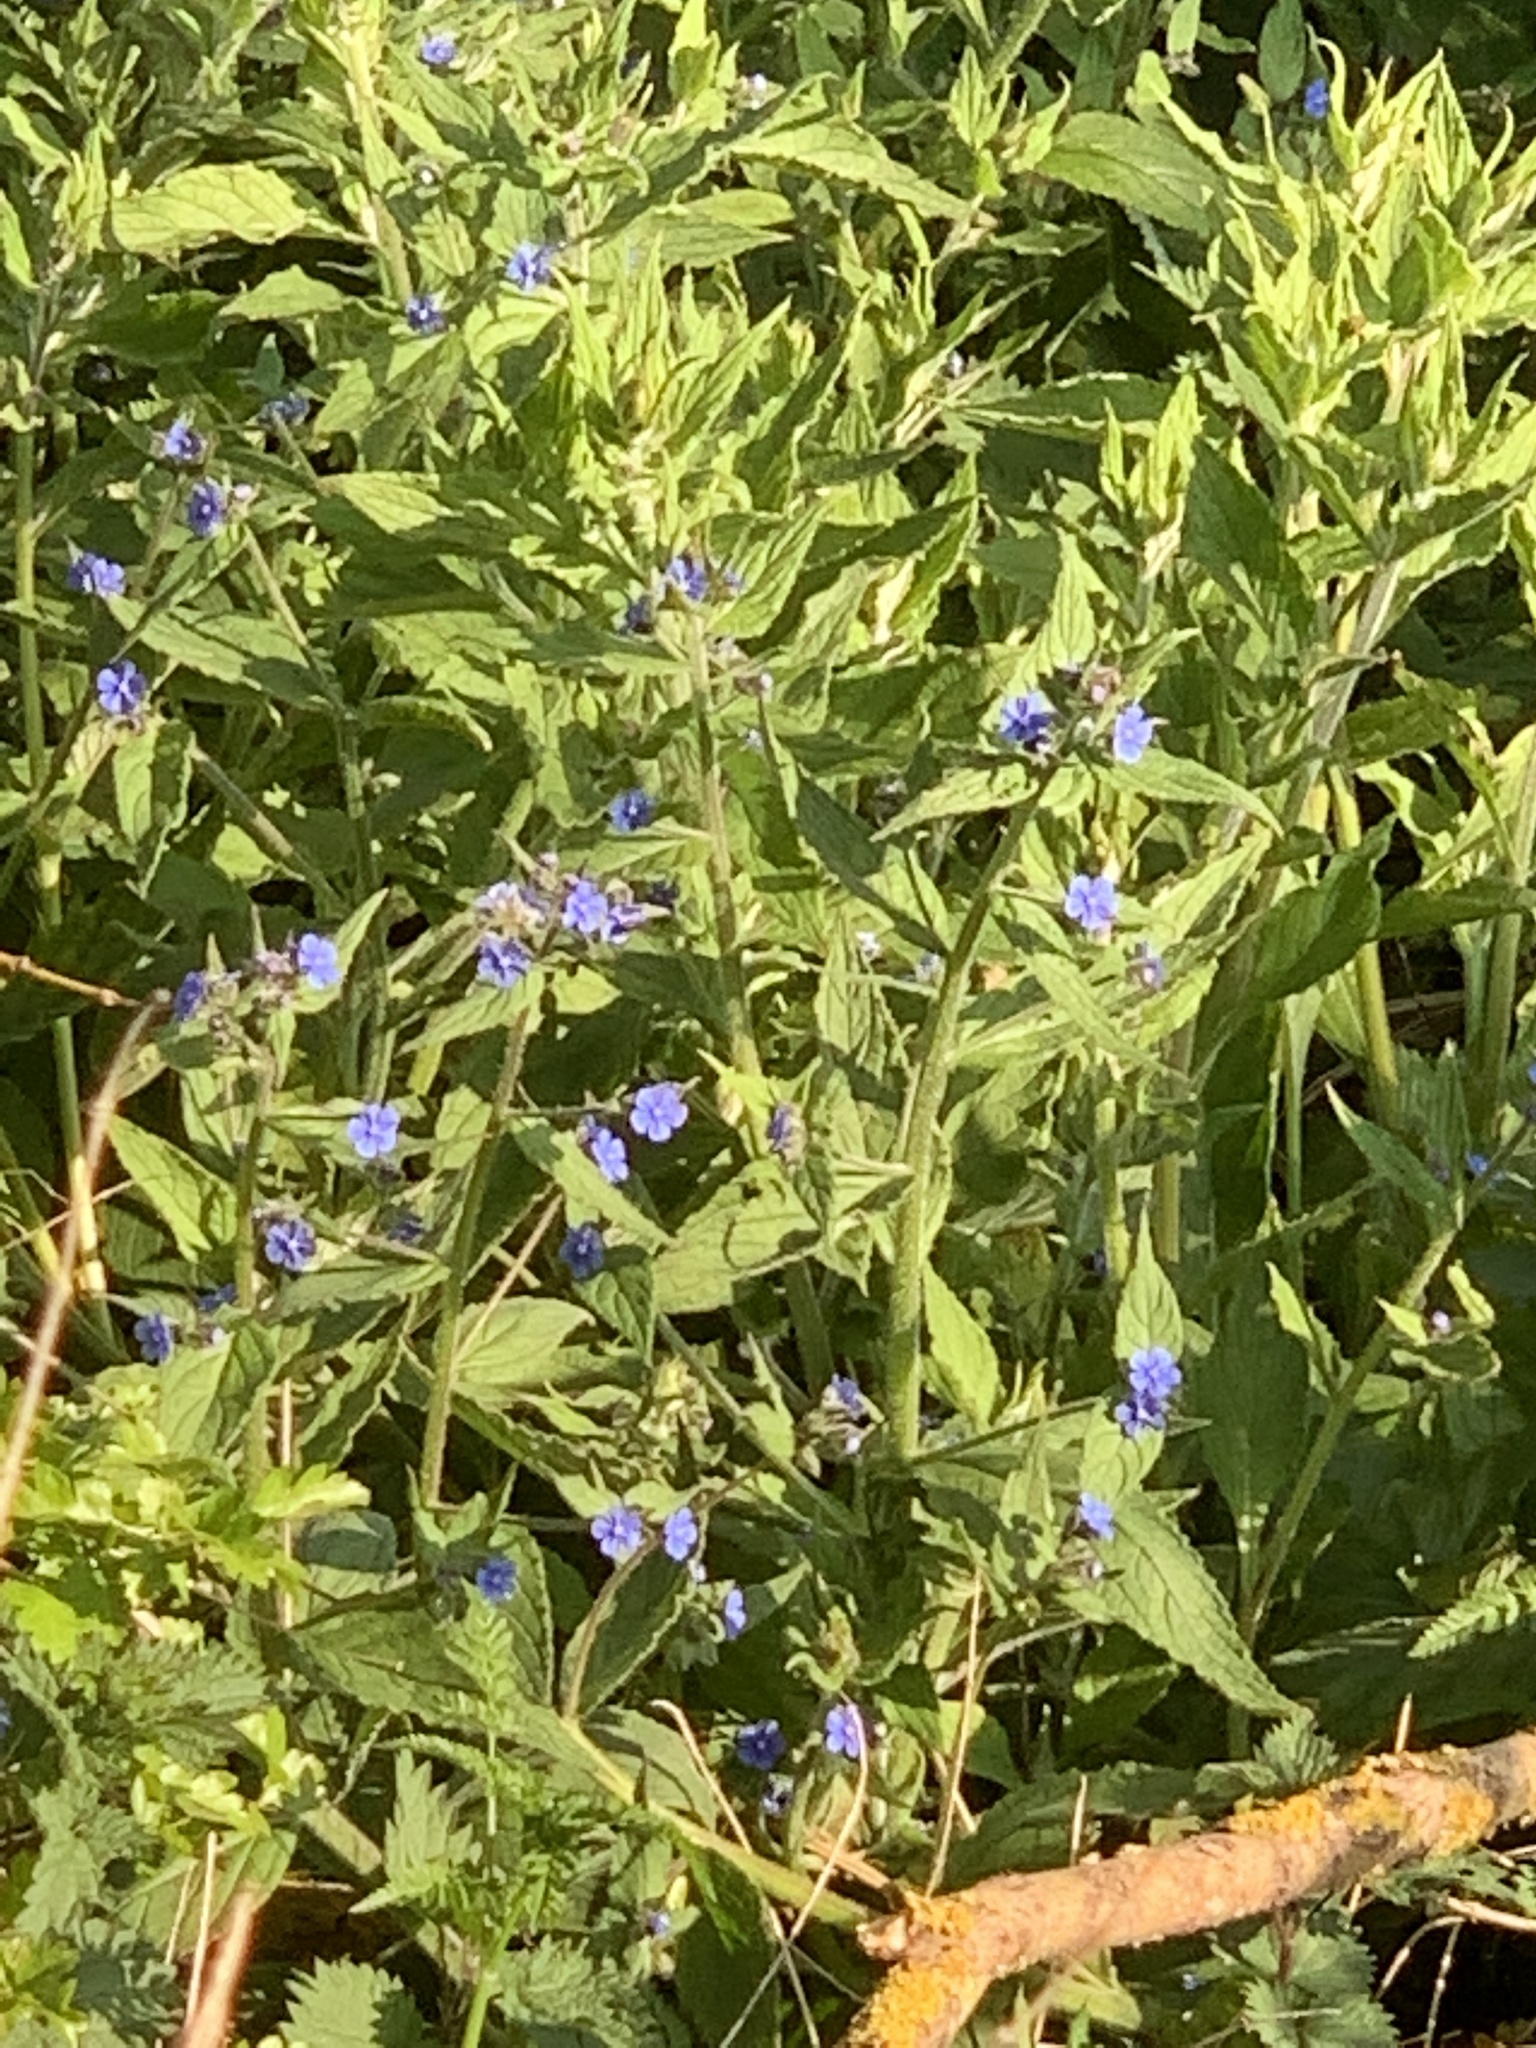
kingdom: Plantae
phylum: Tracheophyta
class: Magnoliopsida
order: Boraginales
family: Boraginaceae
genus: Pentaglottis
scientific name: Pentaglottis sempervirens
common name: Green alkanet
